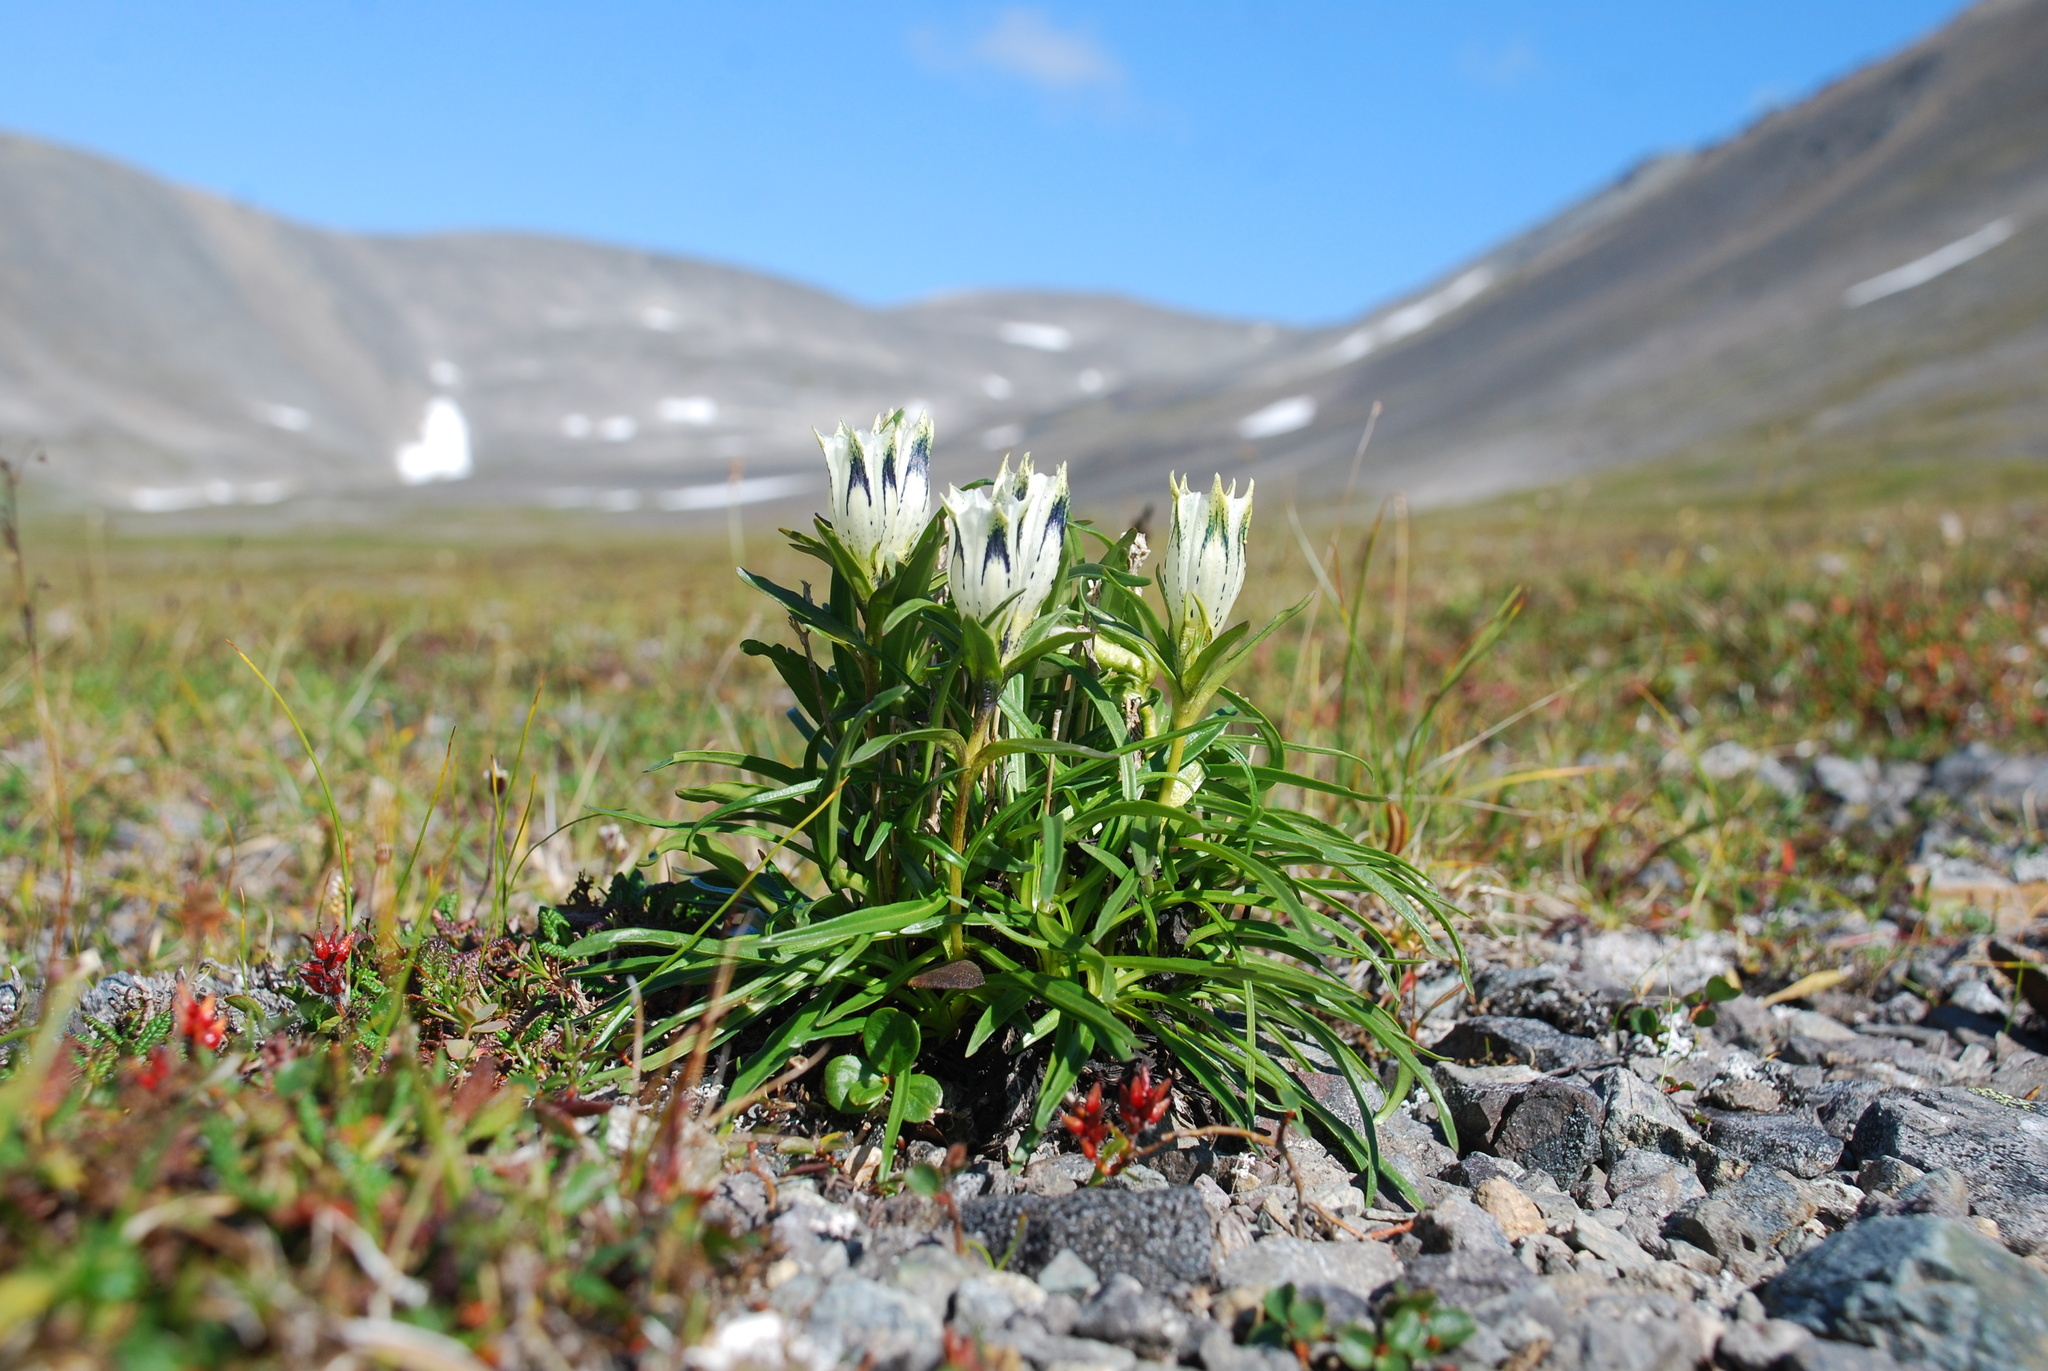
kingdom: Plantae
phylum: Tracheophyta
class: Magnoliopsida
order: Gentianales
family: Gentianaceae
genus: Gentiana
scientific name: Gentiana algida
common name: Arctic gentian
